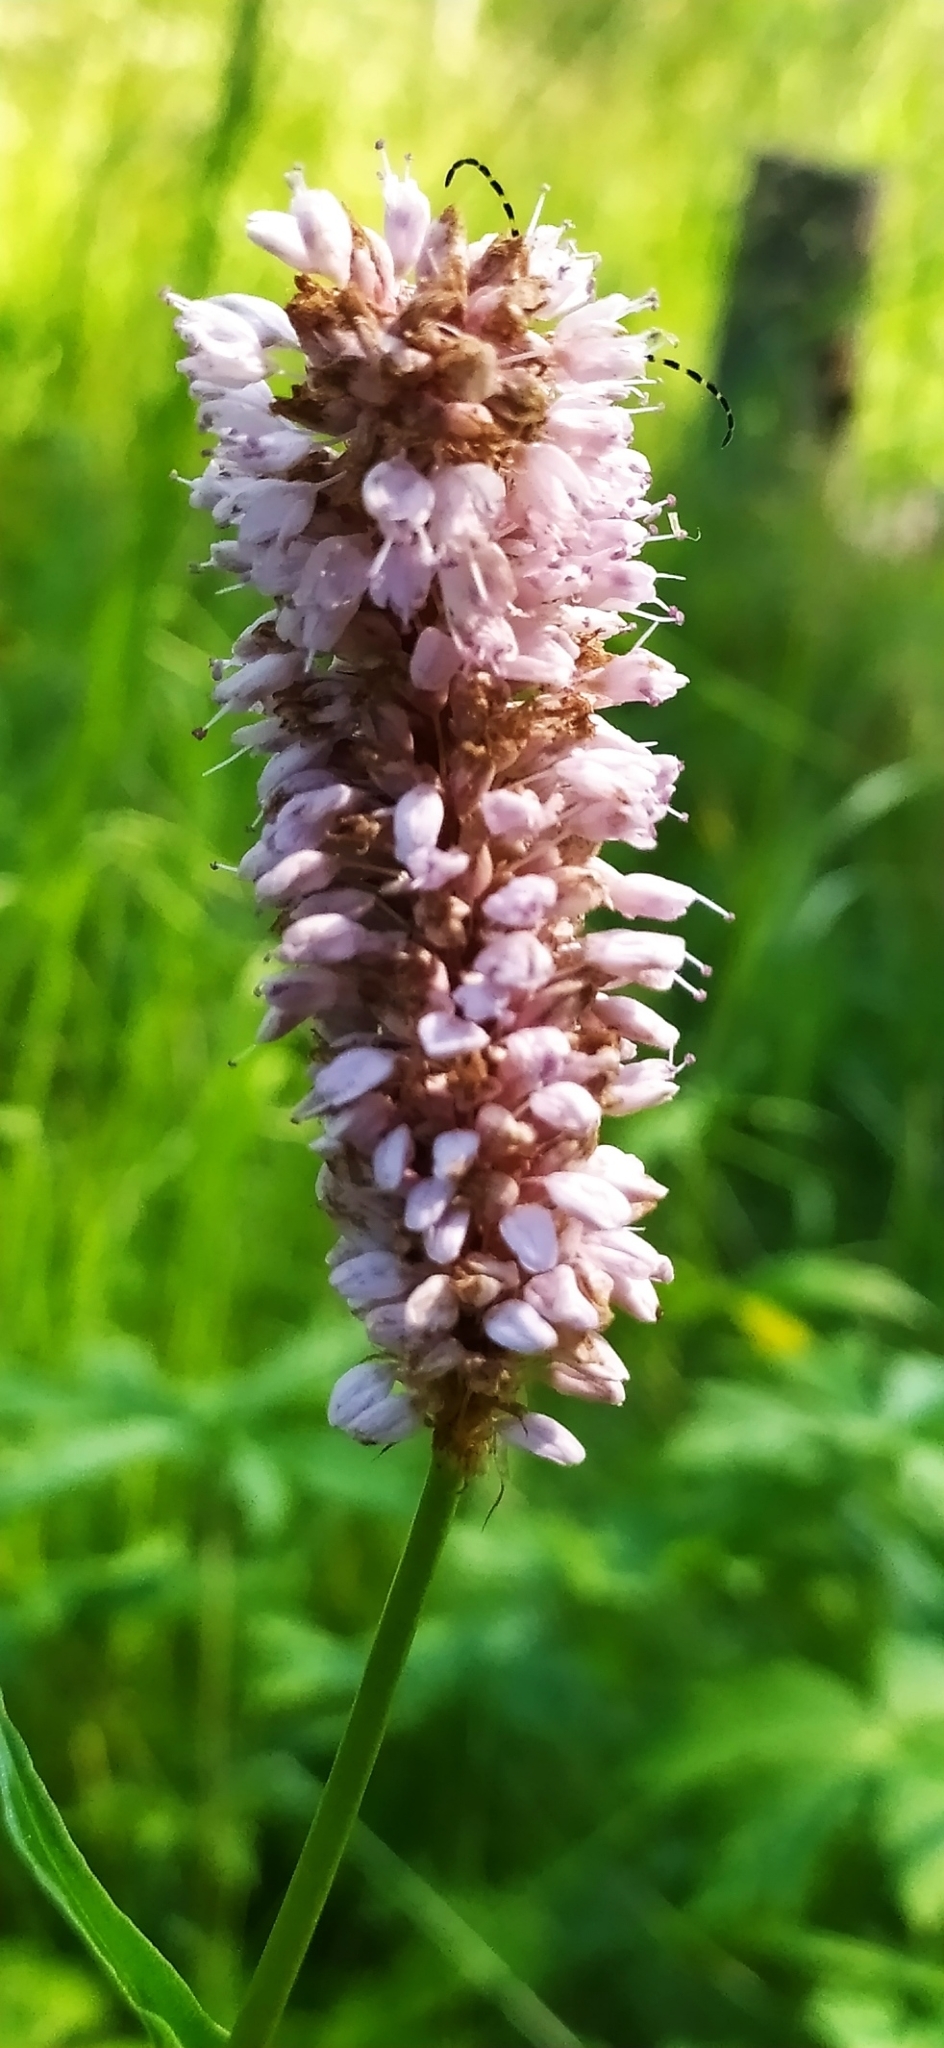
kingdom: Plantae
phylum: Tracheophyta
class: Magnoliopsida
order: Caryophyllales
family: Polygonaceae
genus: Bistorta
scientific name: Bistorta officinalis
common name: Common bistort
